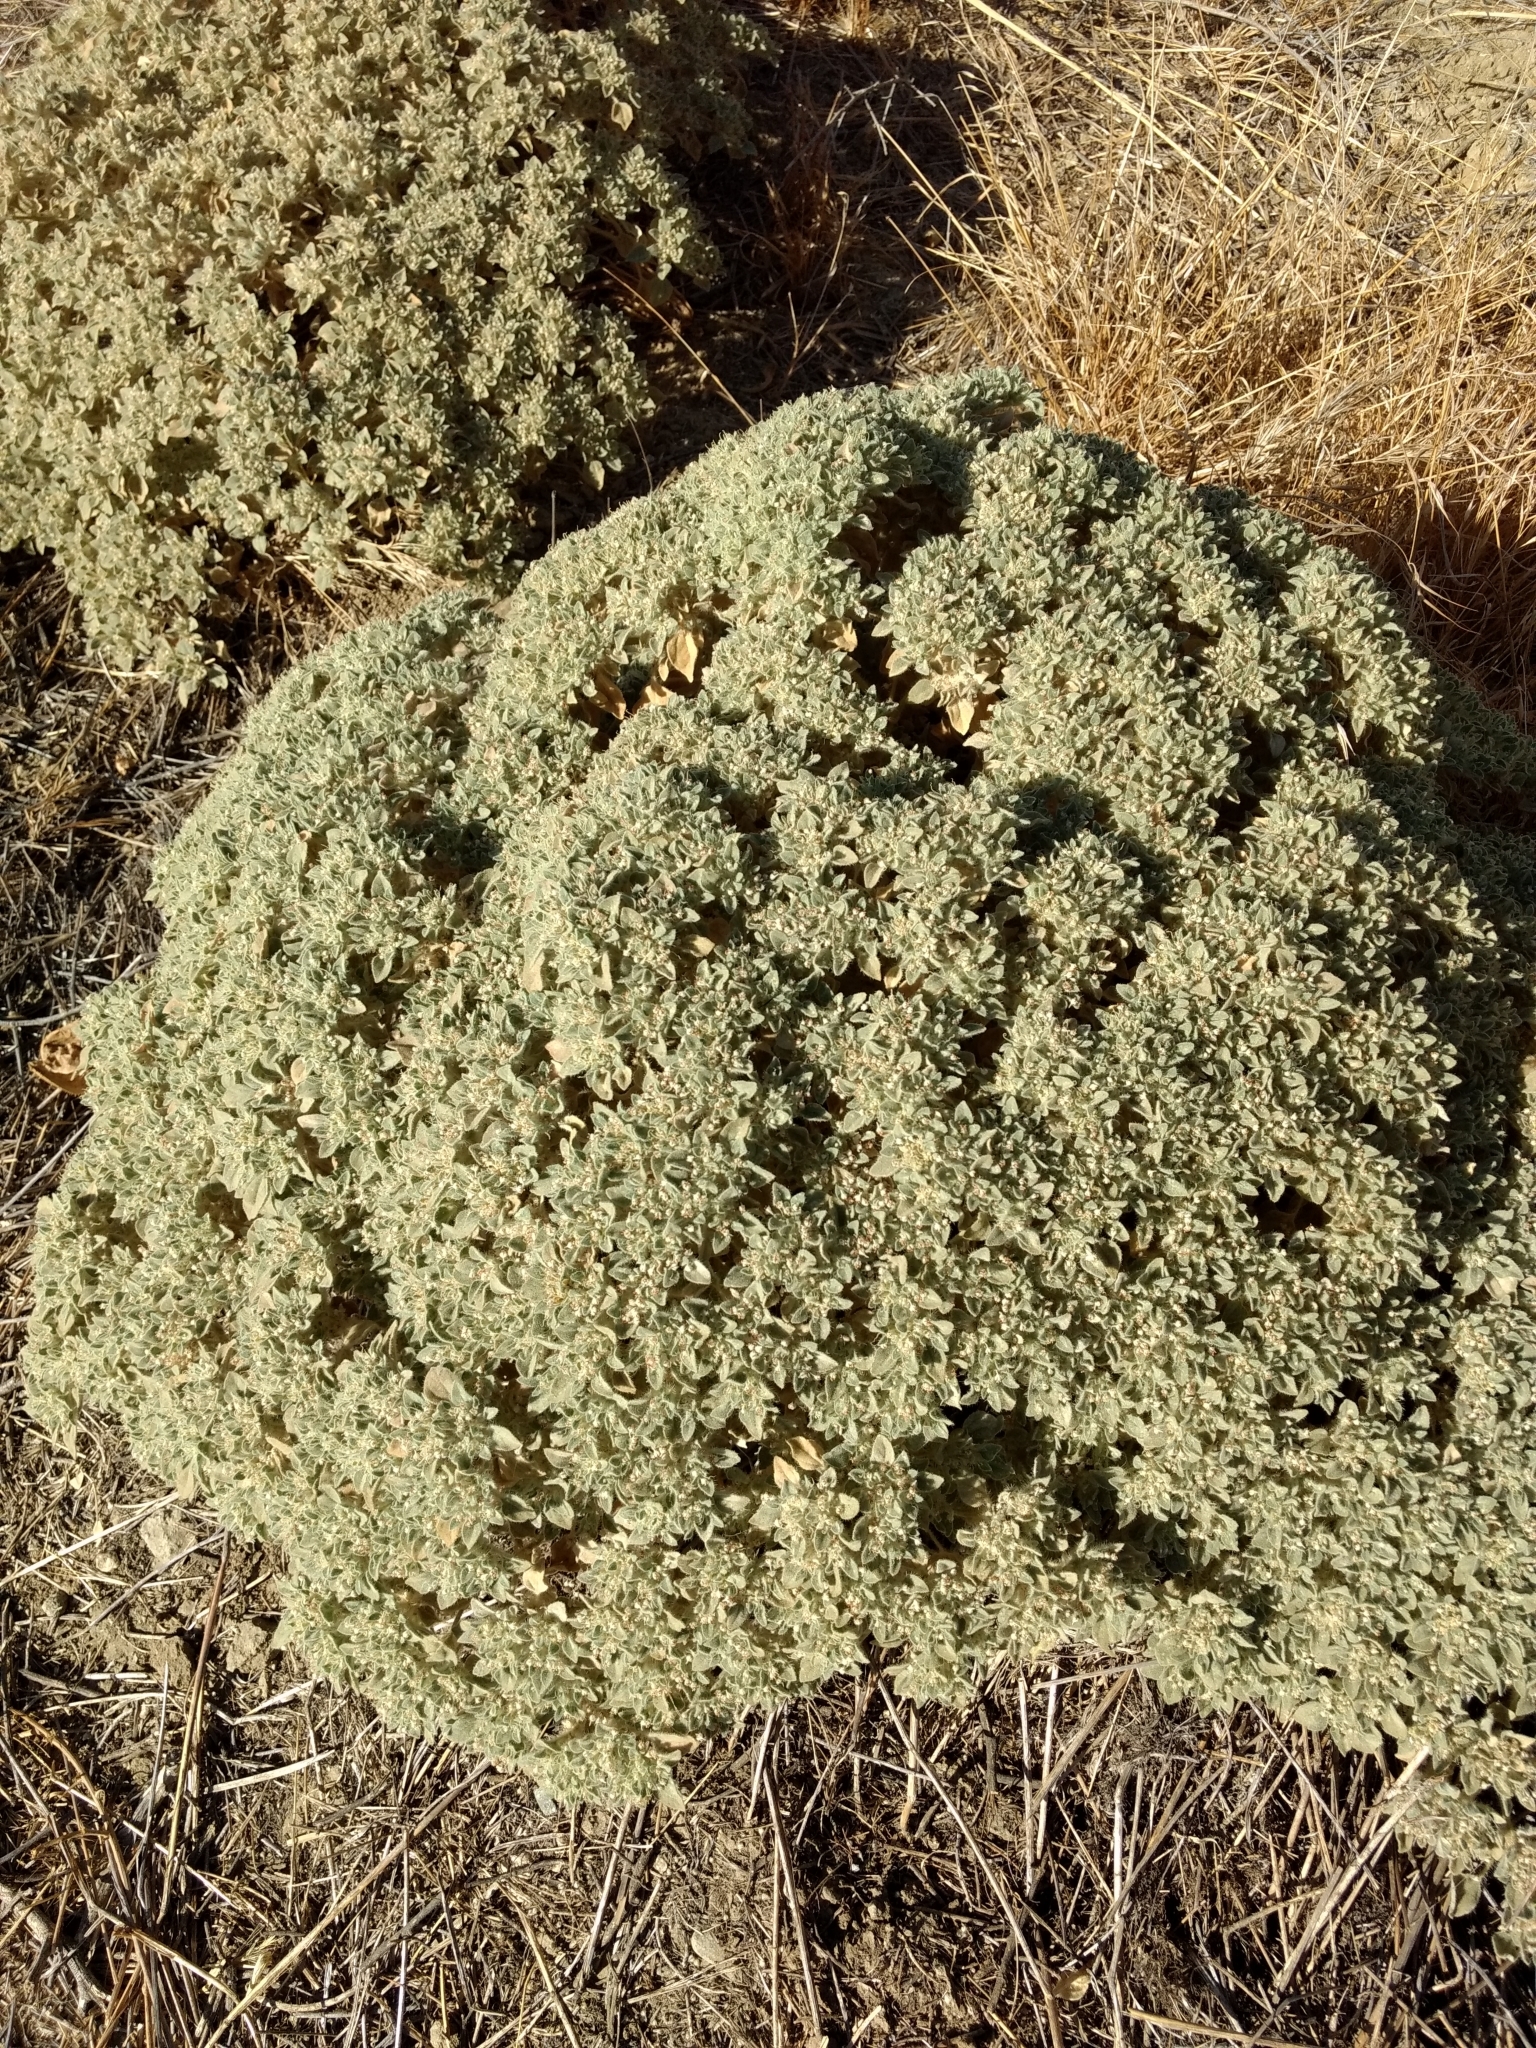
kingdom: Plantae
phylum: Tracheophyta
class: Magnoliopsida
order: Malpighiales
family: Euphorbiaceae
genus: Croton
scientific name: Croton setiger
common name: Dove weed
